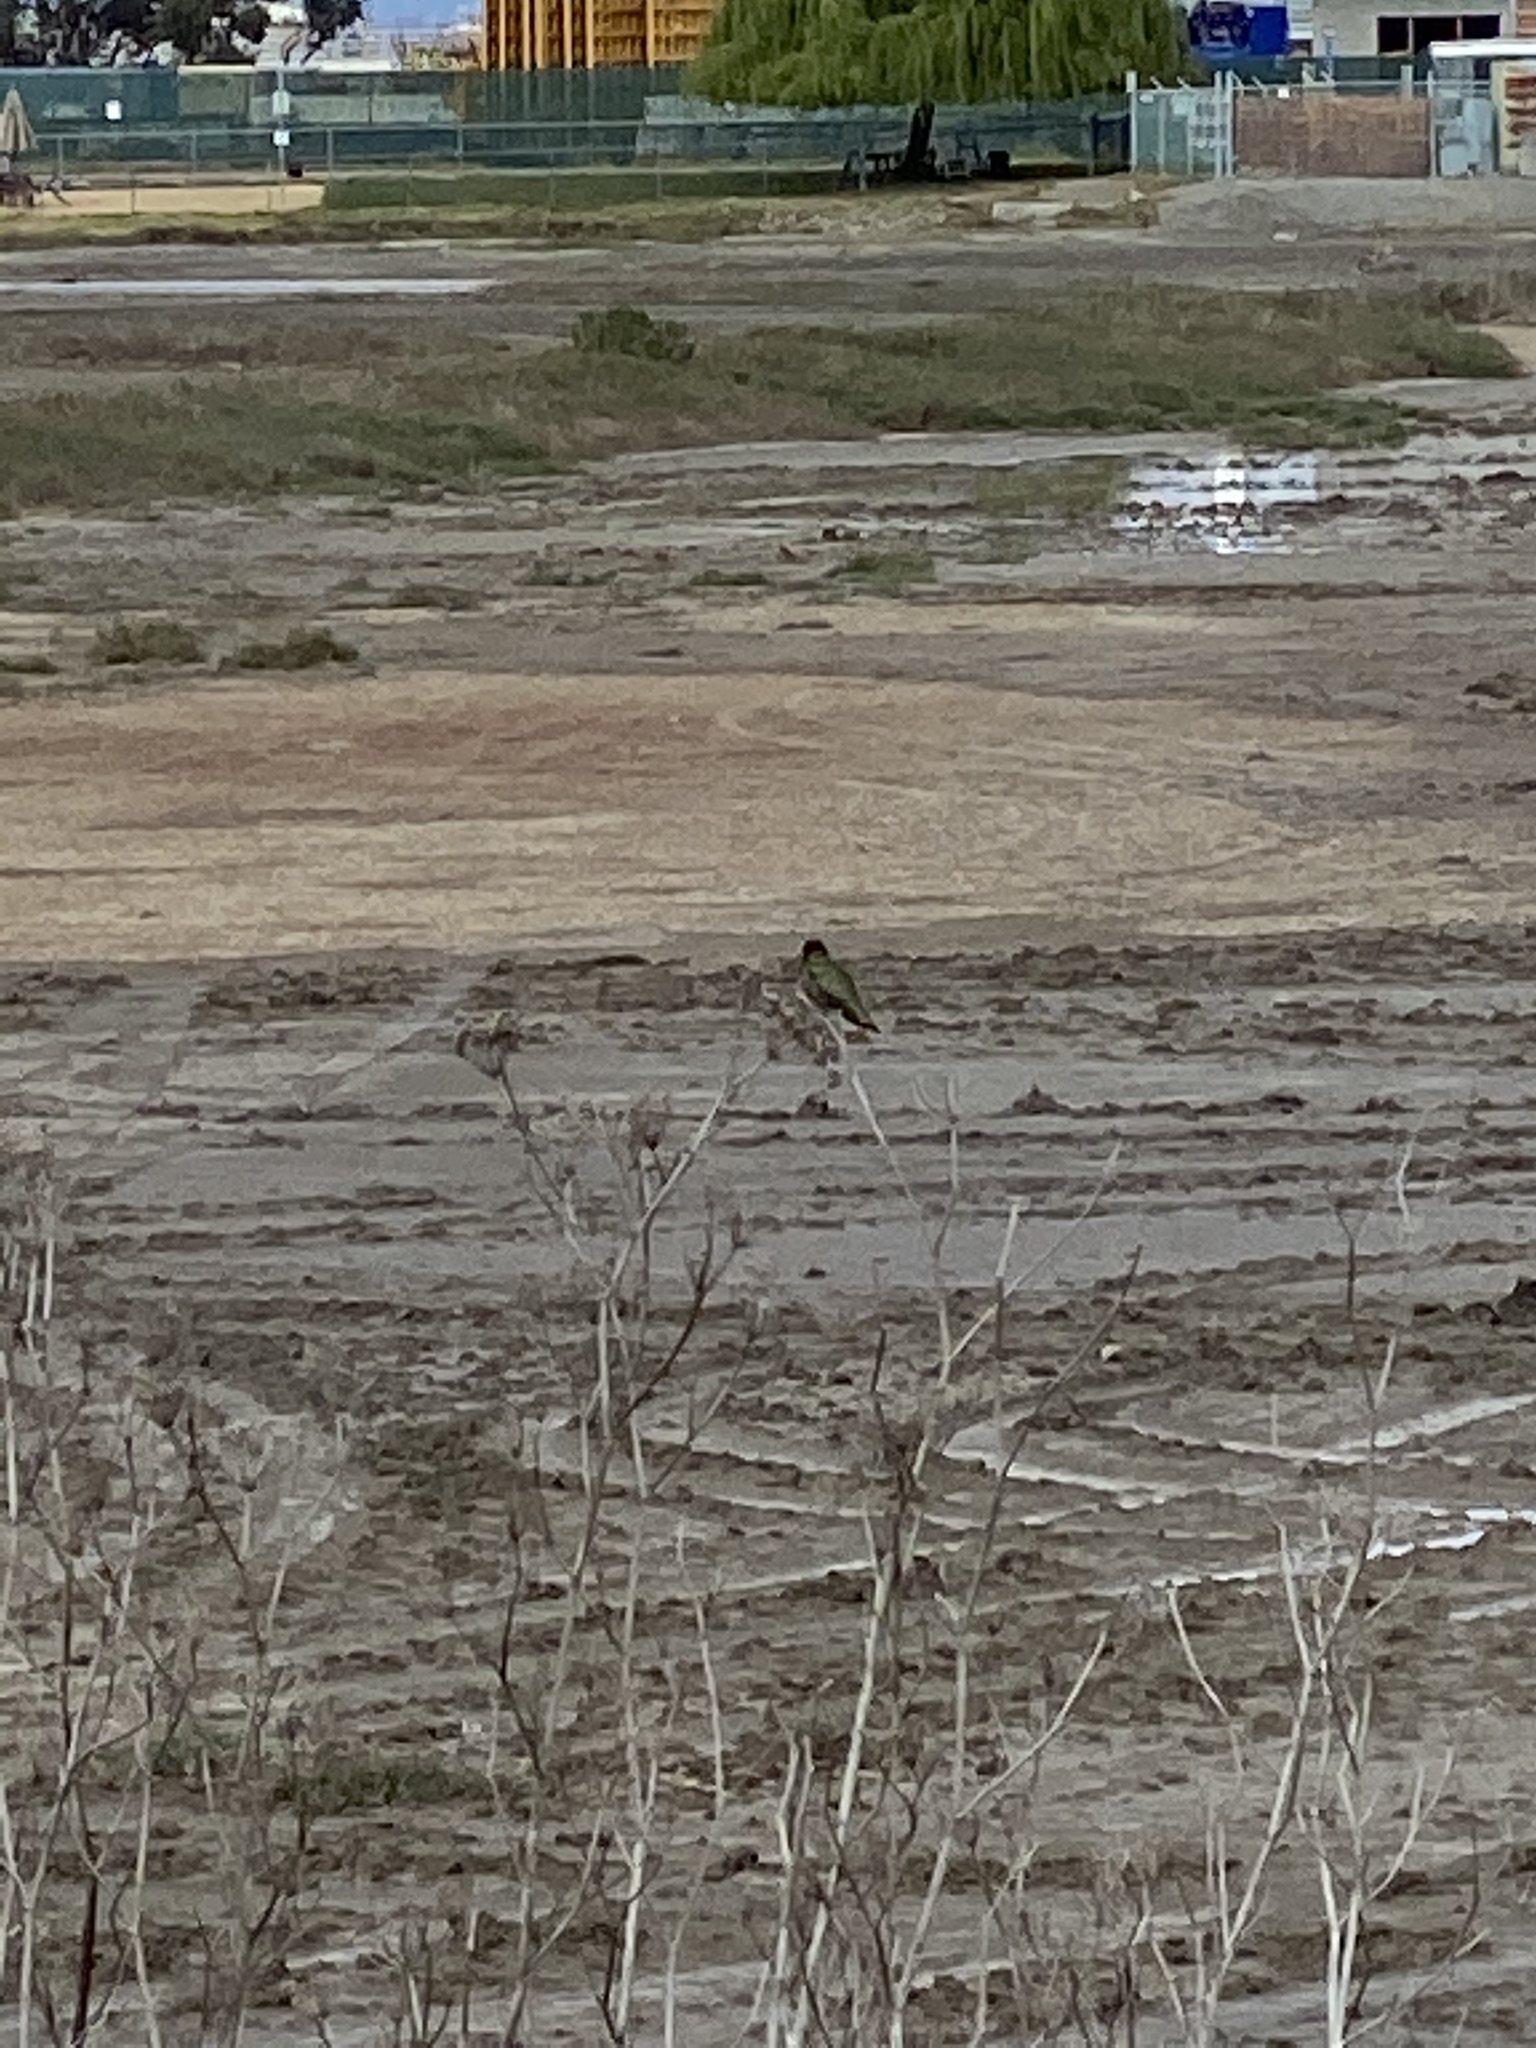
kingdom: Animalia
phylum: Chordata
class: Aves
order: Apodiformes
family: Trochilidae
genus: Calypte
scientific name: Calypte anna
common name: Anna's hummingbird
